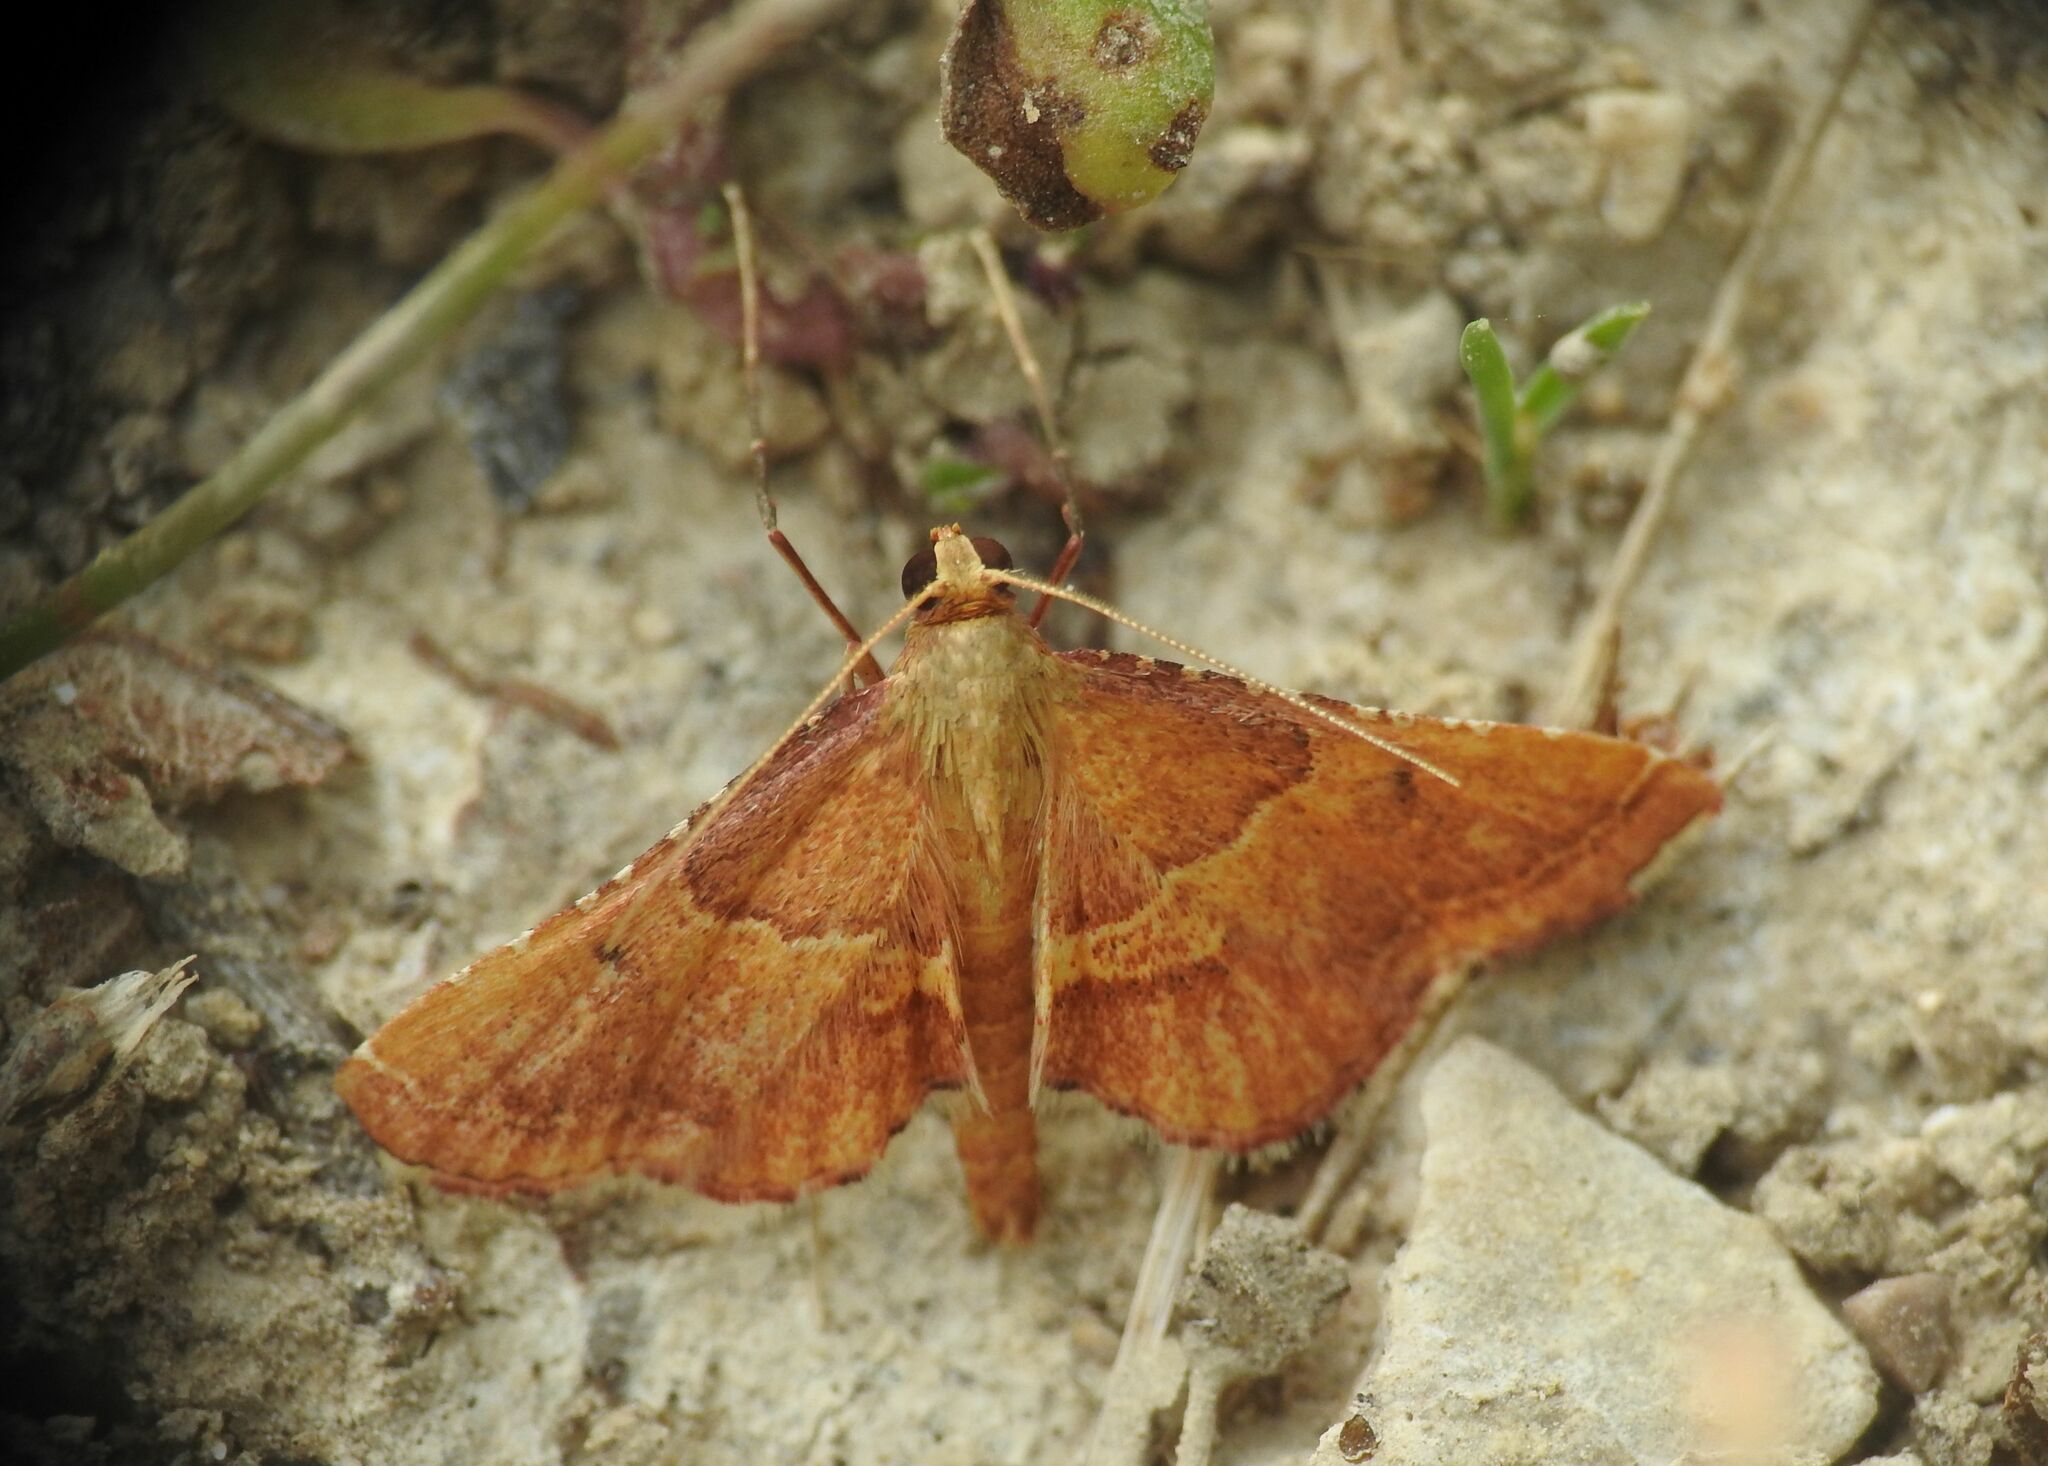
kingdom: Animalia
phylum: Arthropoda
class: Insecta
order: Lepidoptera
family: Pyralidae
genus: Endotricha
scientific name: Endotricha flammealis
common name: Rosy tabby
